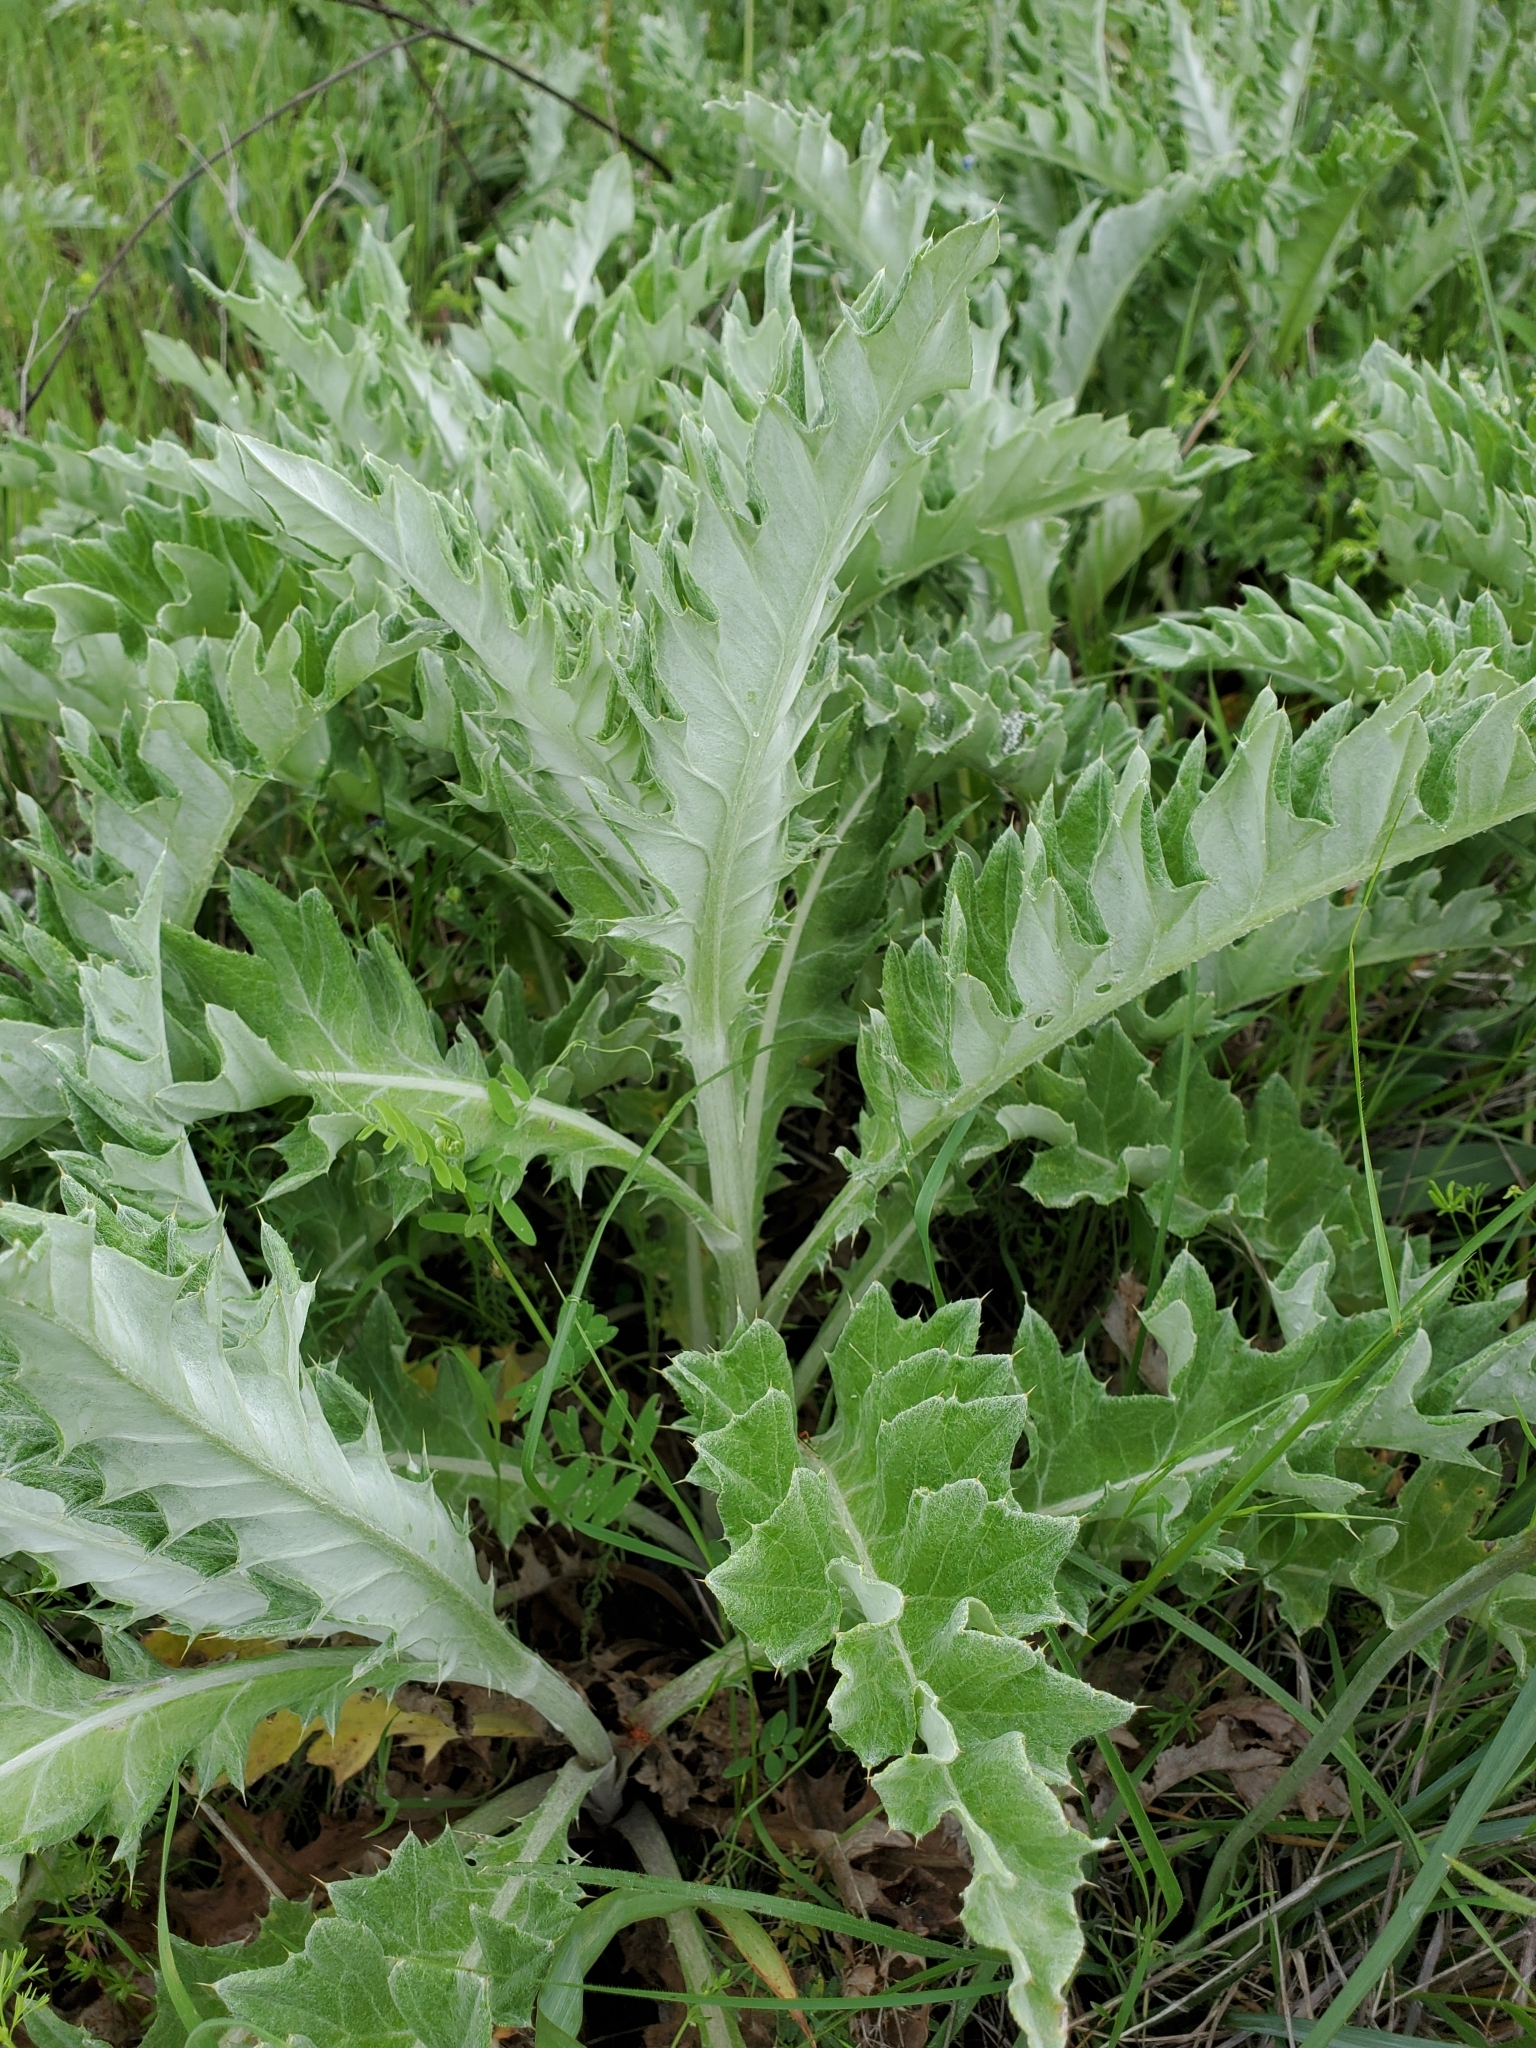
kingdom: Plantae
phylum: Tracheophyta
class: Magnoliopsida
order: Asterales
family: Asteraceae
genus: Cirsium
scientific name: Cirsium undulatum
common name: Pasture thistle
